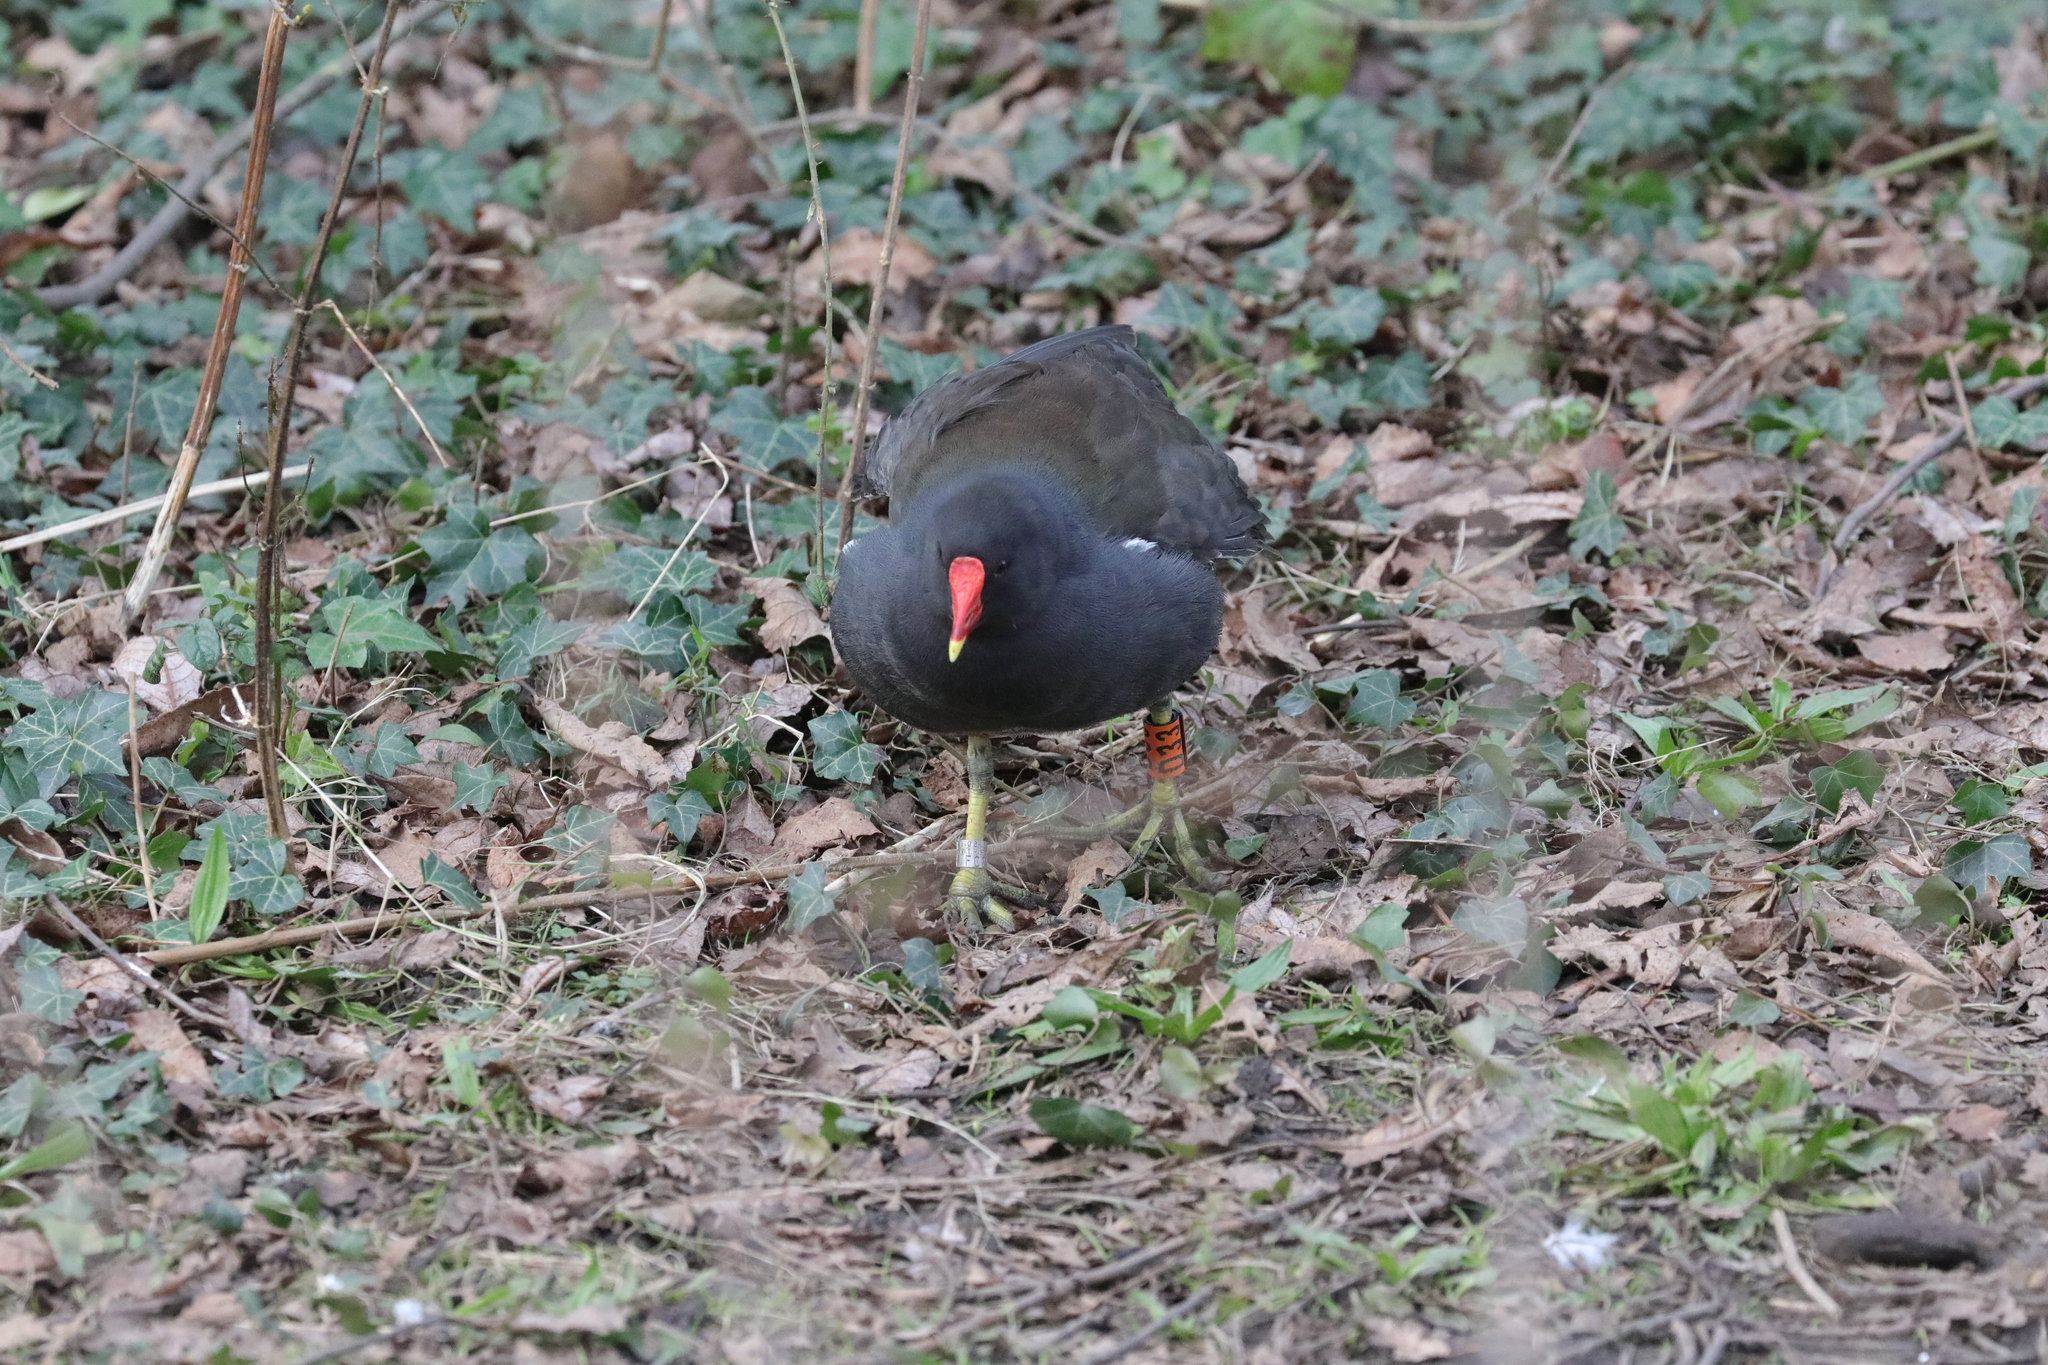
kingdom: Animalia
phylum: Chordata
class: Aves
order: Gruiformes
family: Rallidae
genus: Gallinula
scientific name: Gallinula chloropus
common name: Common moorhen
